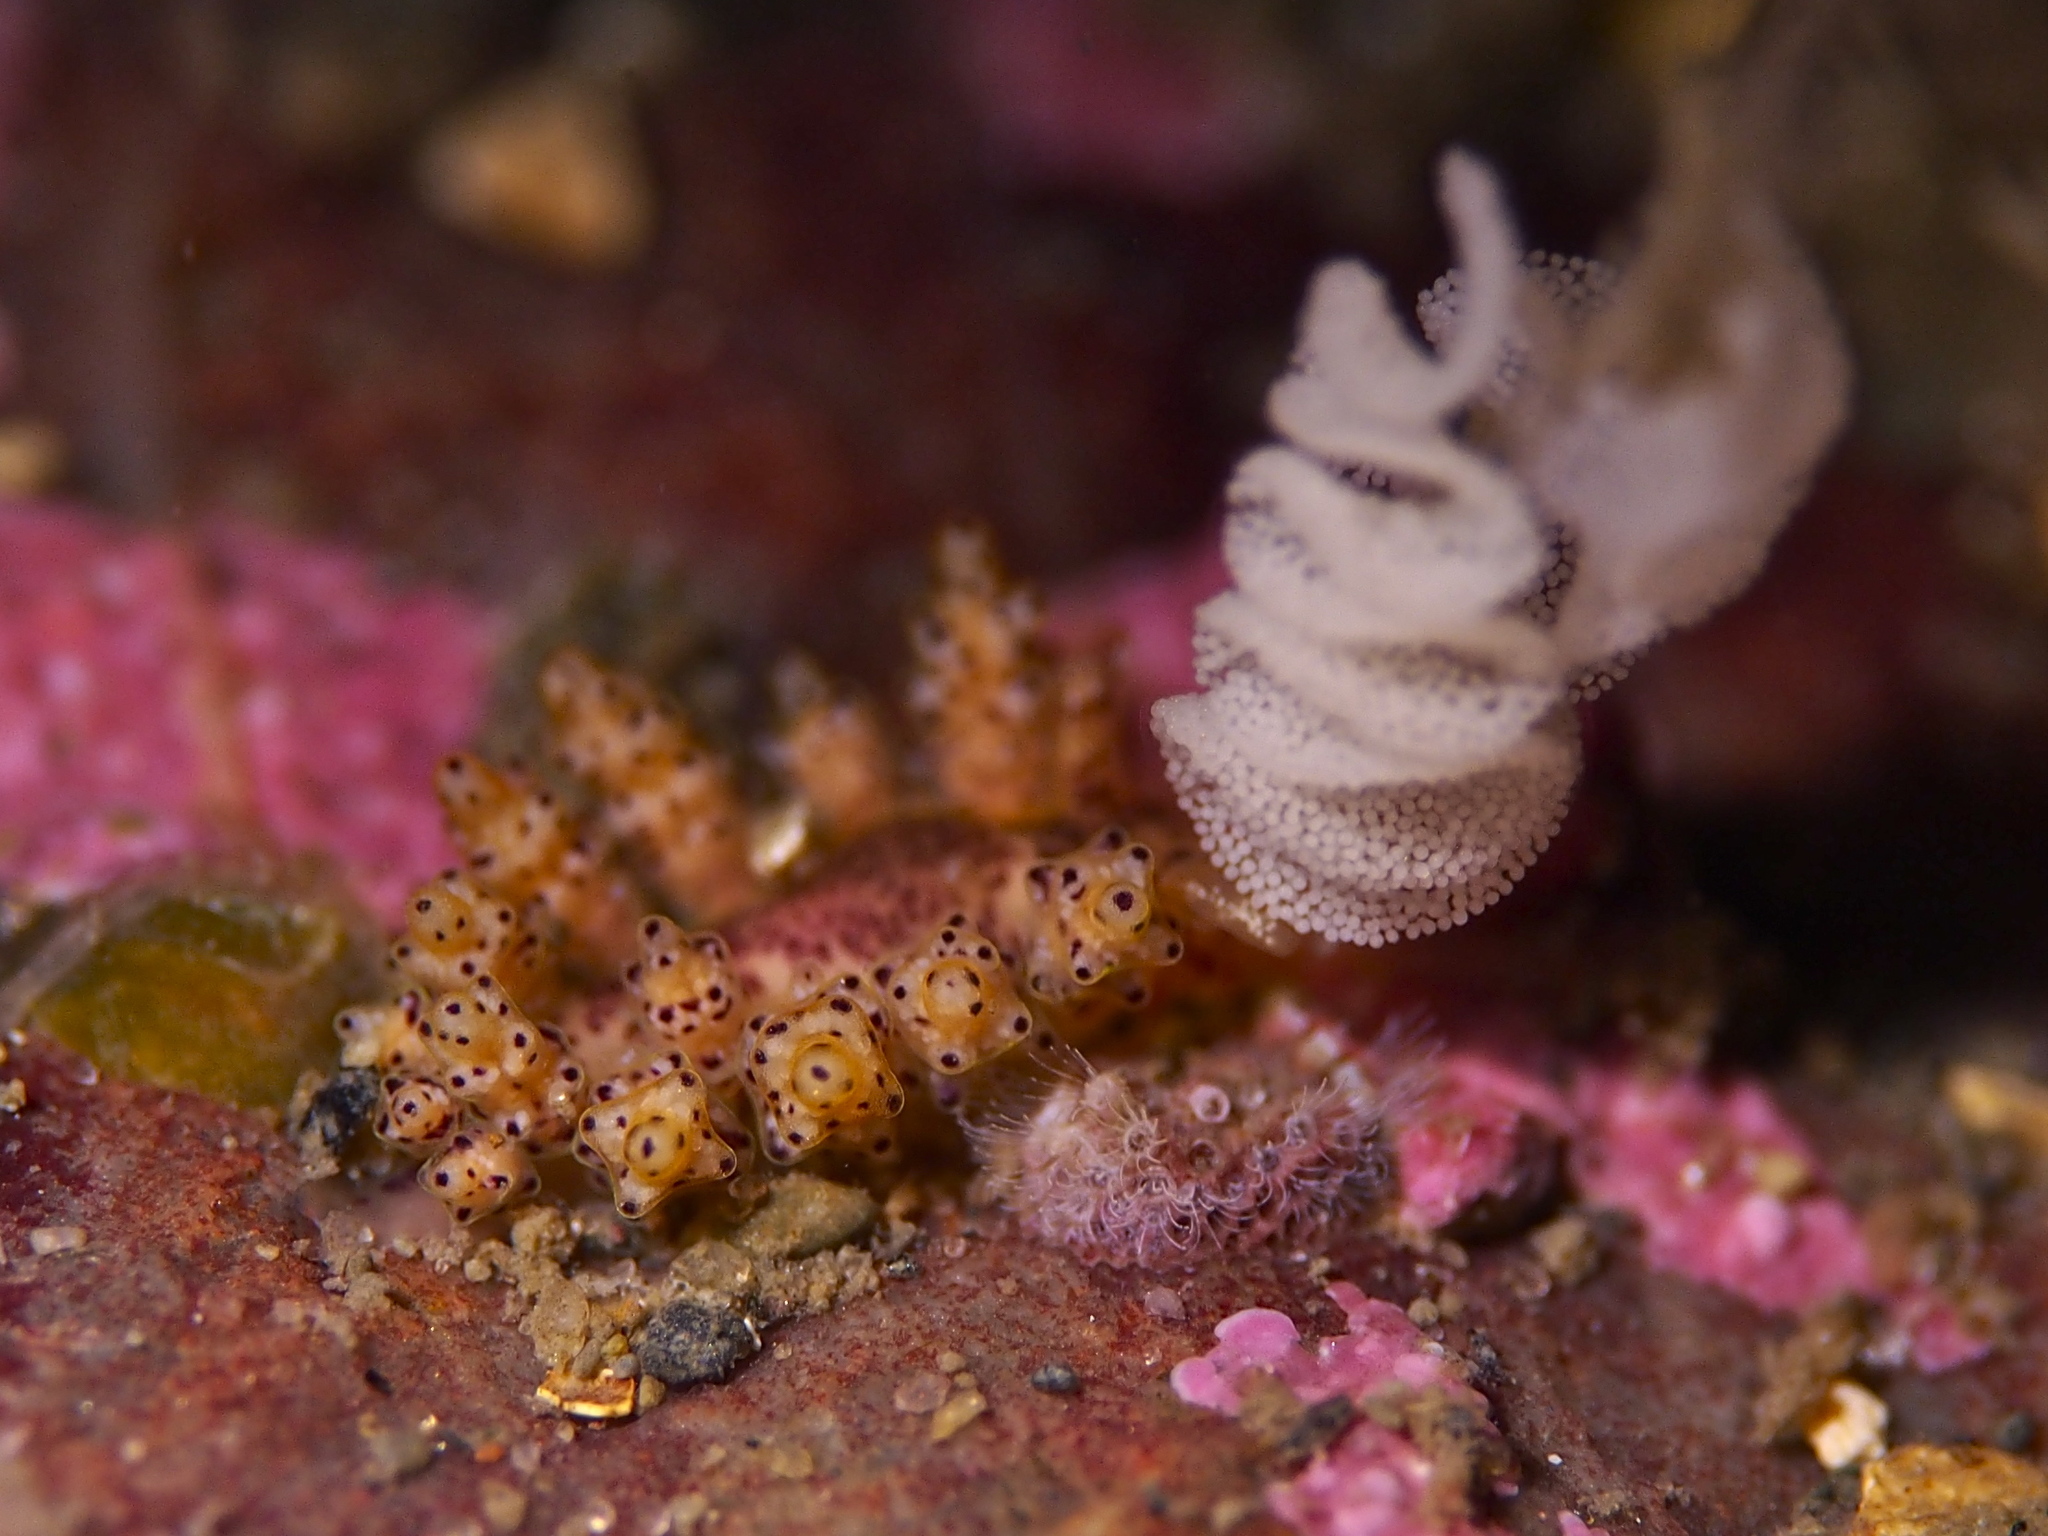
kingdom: Animalia
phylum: Mollusca
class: Gastropoda
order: Nudibranchia
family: Dotidae
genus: Doto
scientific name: Doto dunnei
